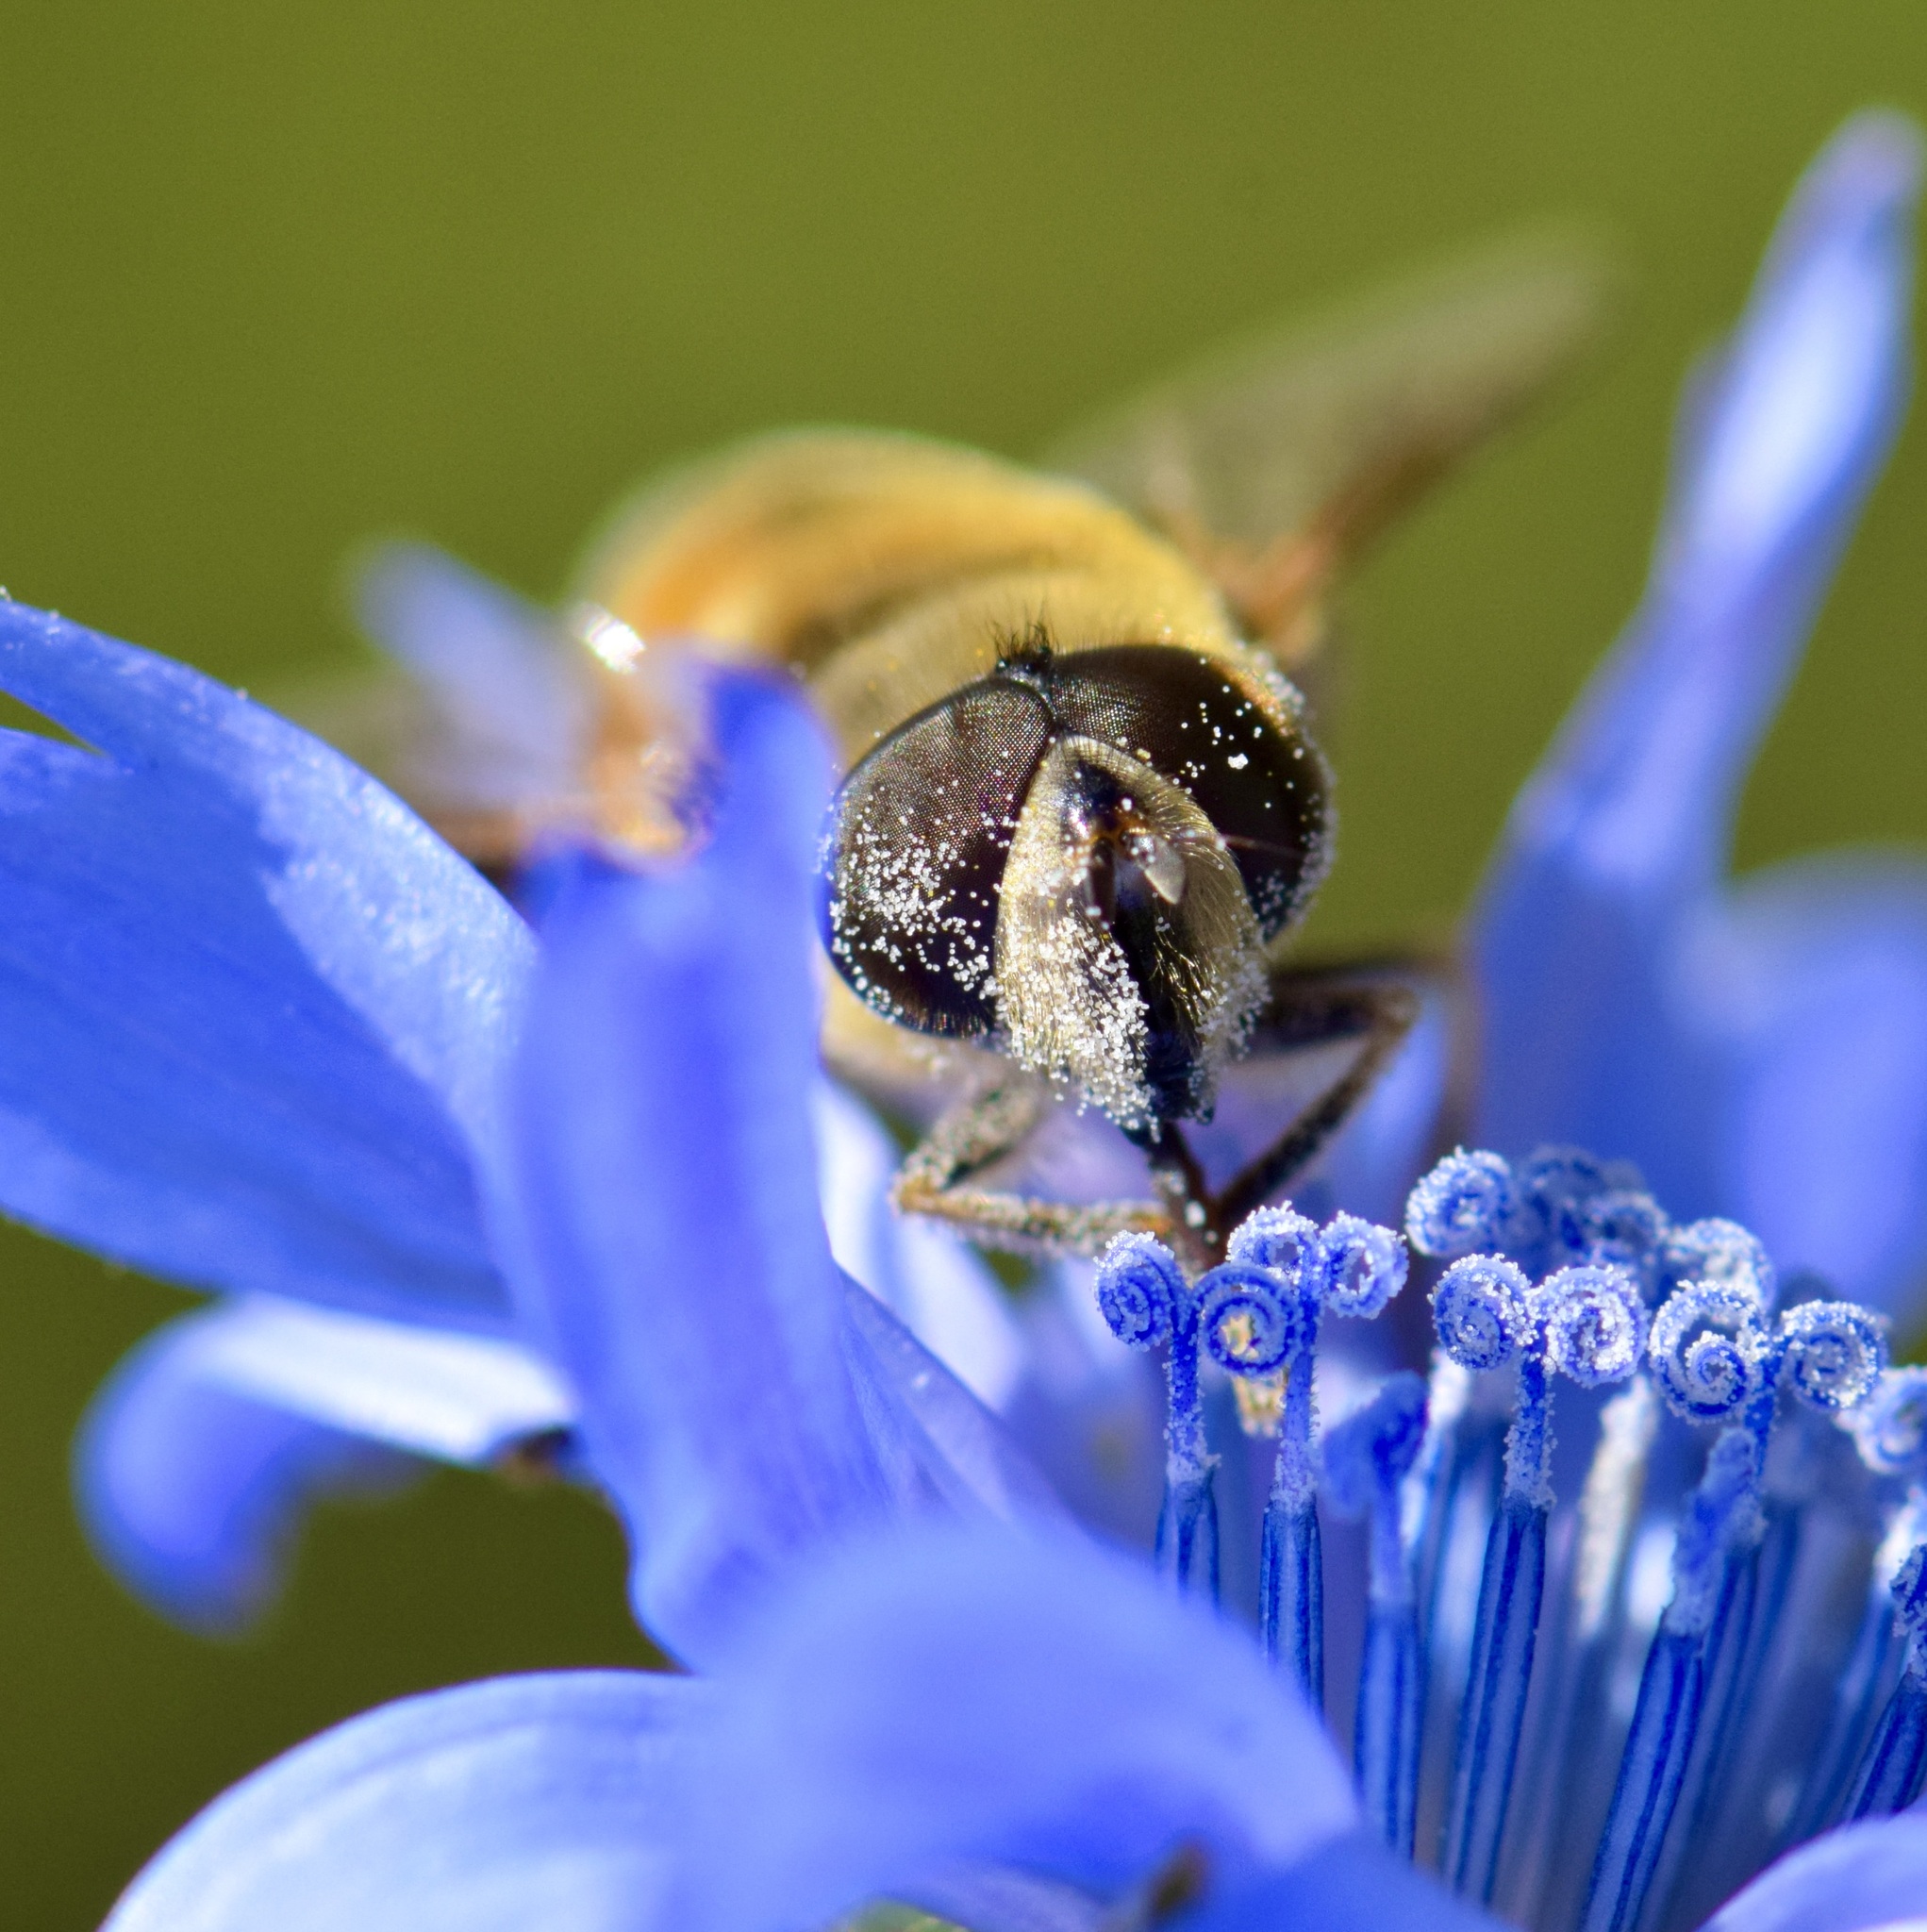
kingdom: Animalia
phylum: Arthropoda
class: Insecta
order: Diptera
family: Syrphidae
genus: Eristalis
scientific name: Eristalis tenax
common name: Drone fly
